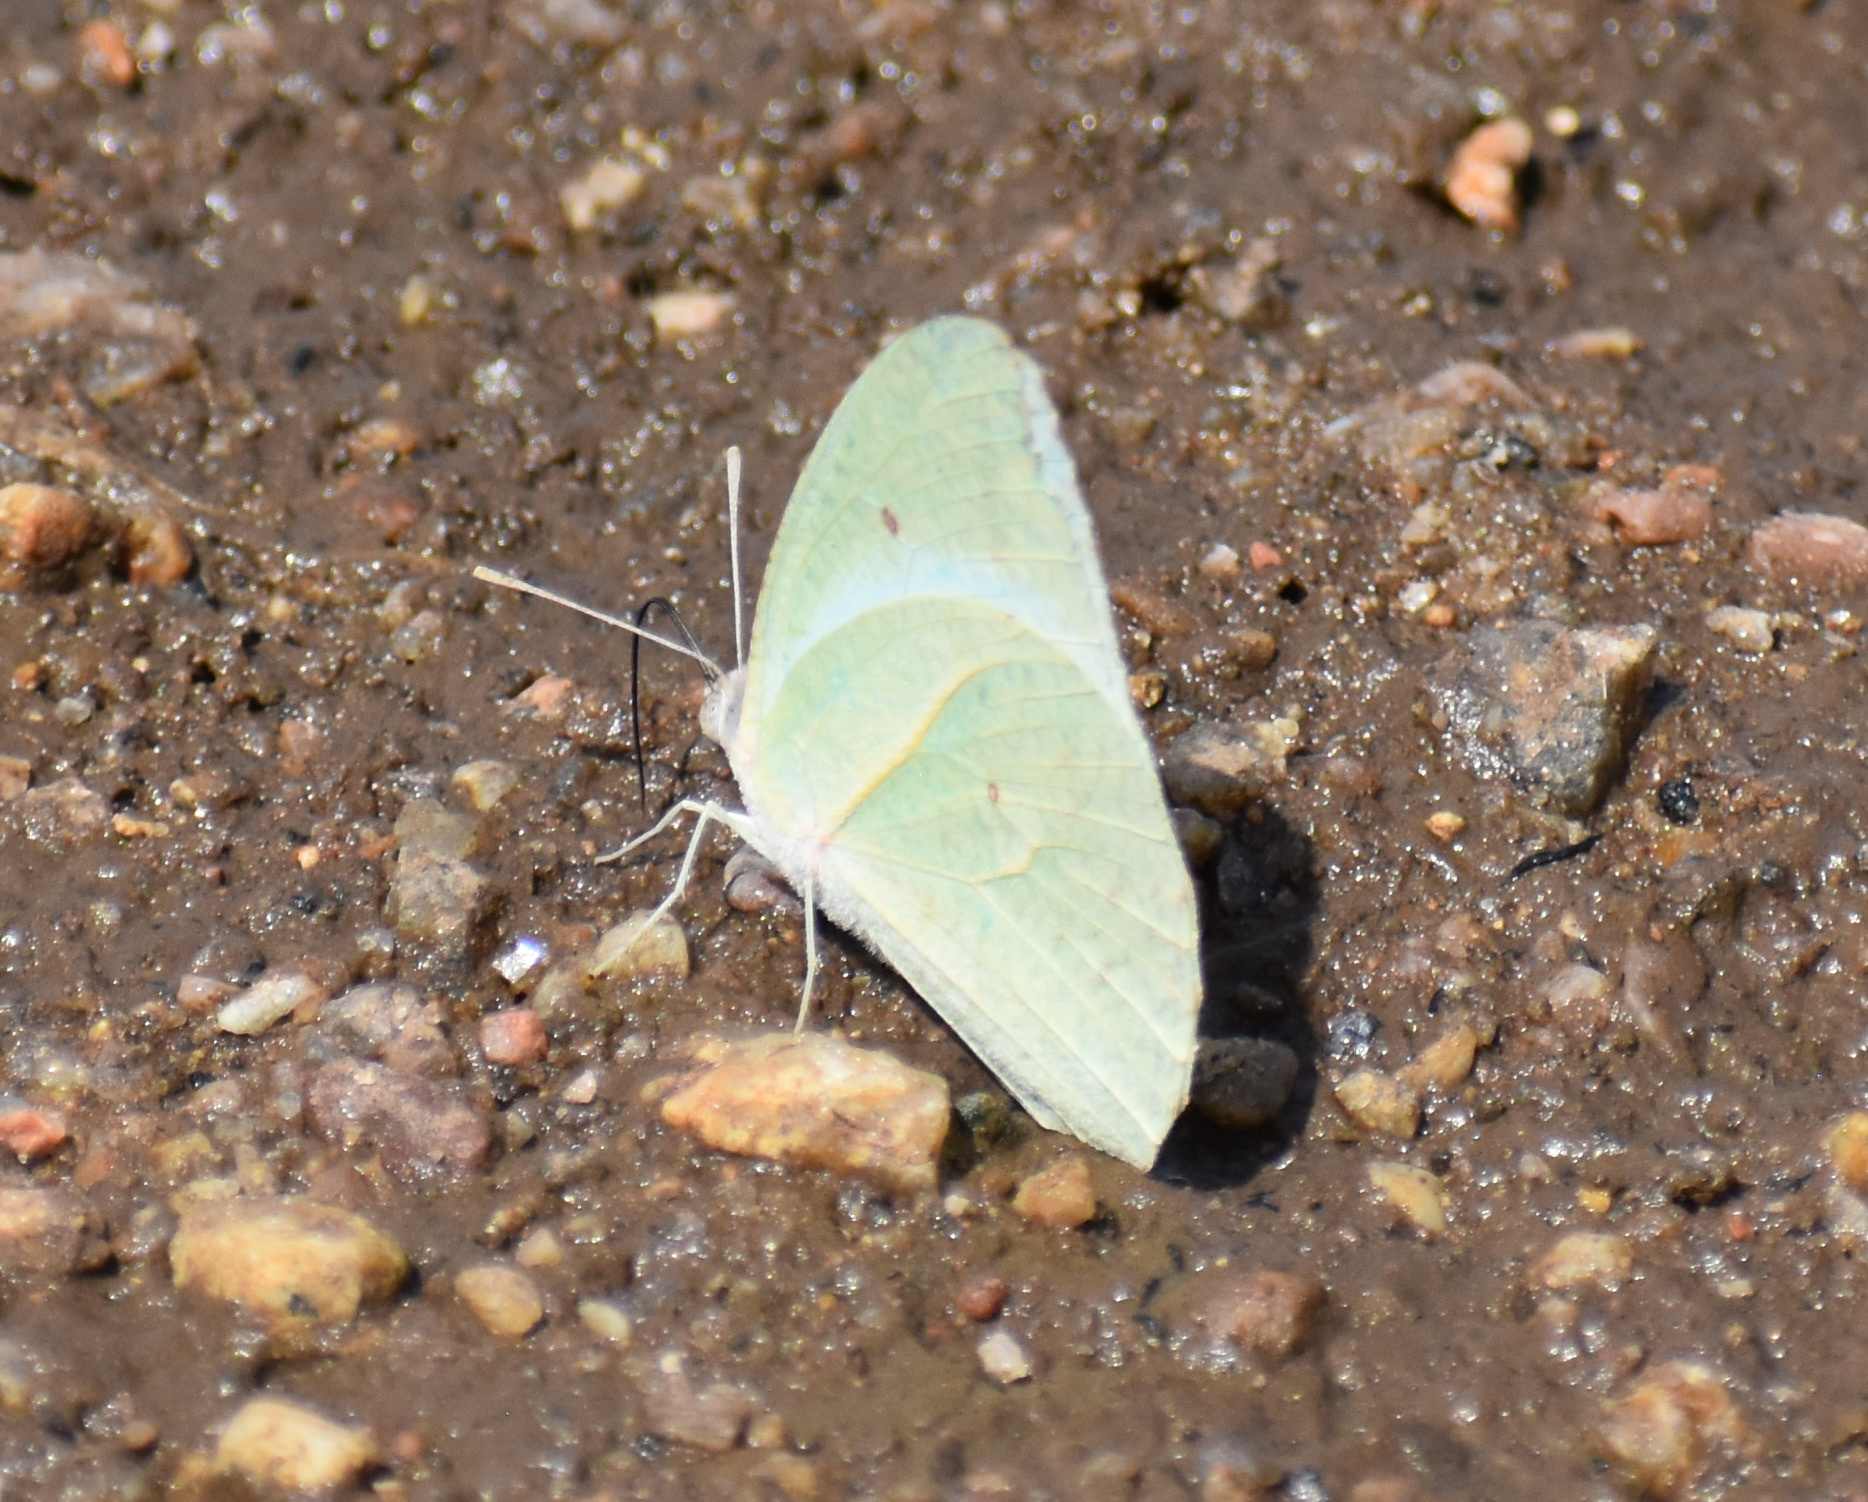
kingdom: Animalia
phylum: Arthropoda
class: Insecta
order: Lepidoptera
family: Pieridae
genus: Catopsilia
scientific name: Catopsilia florella
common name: African migrant
